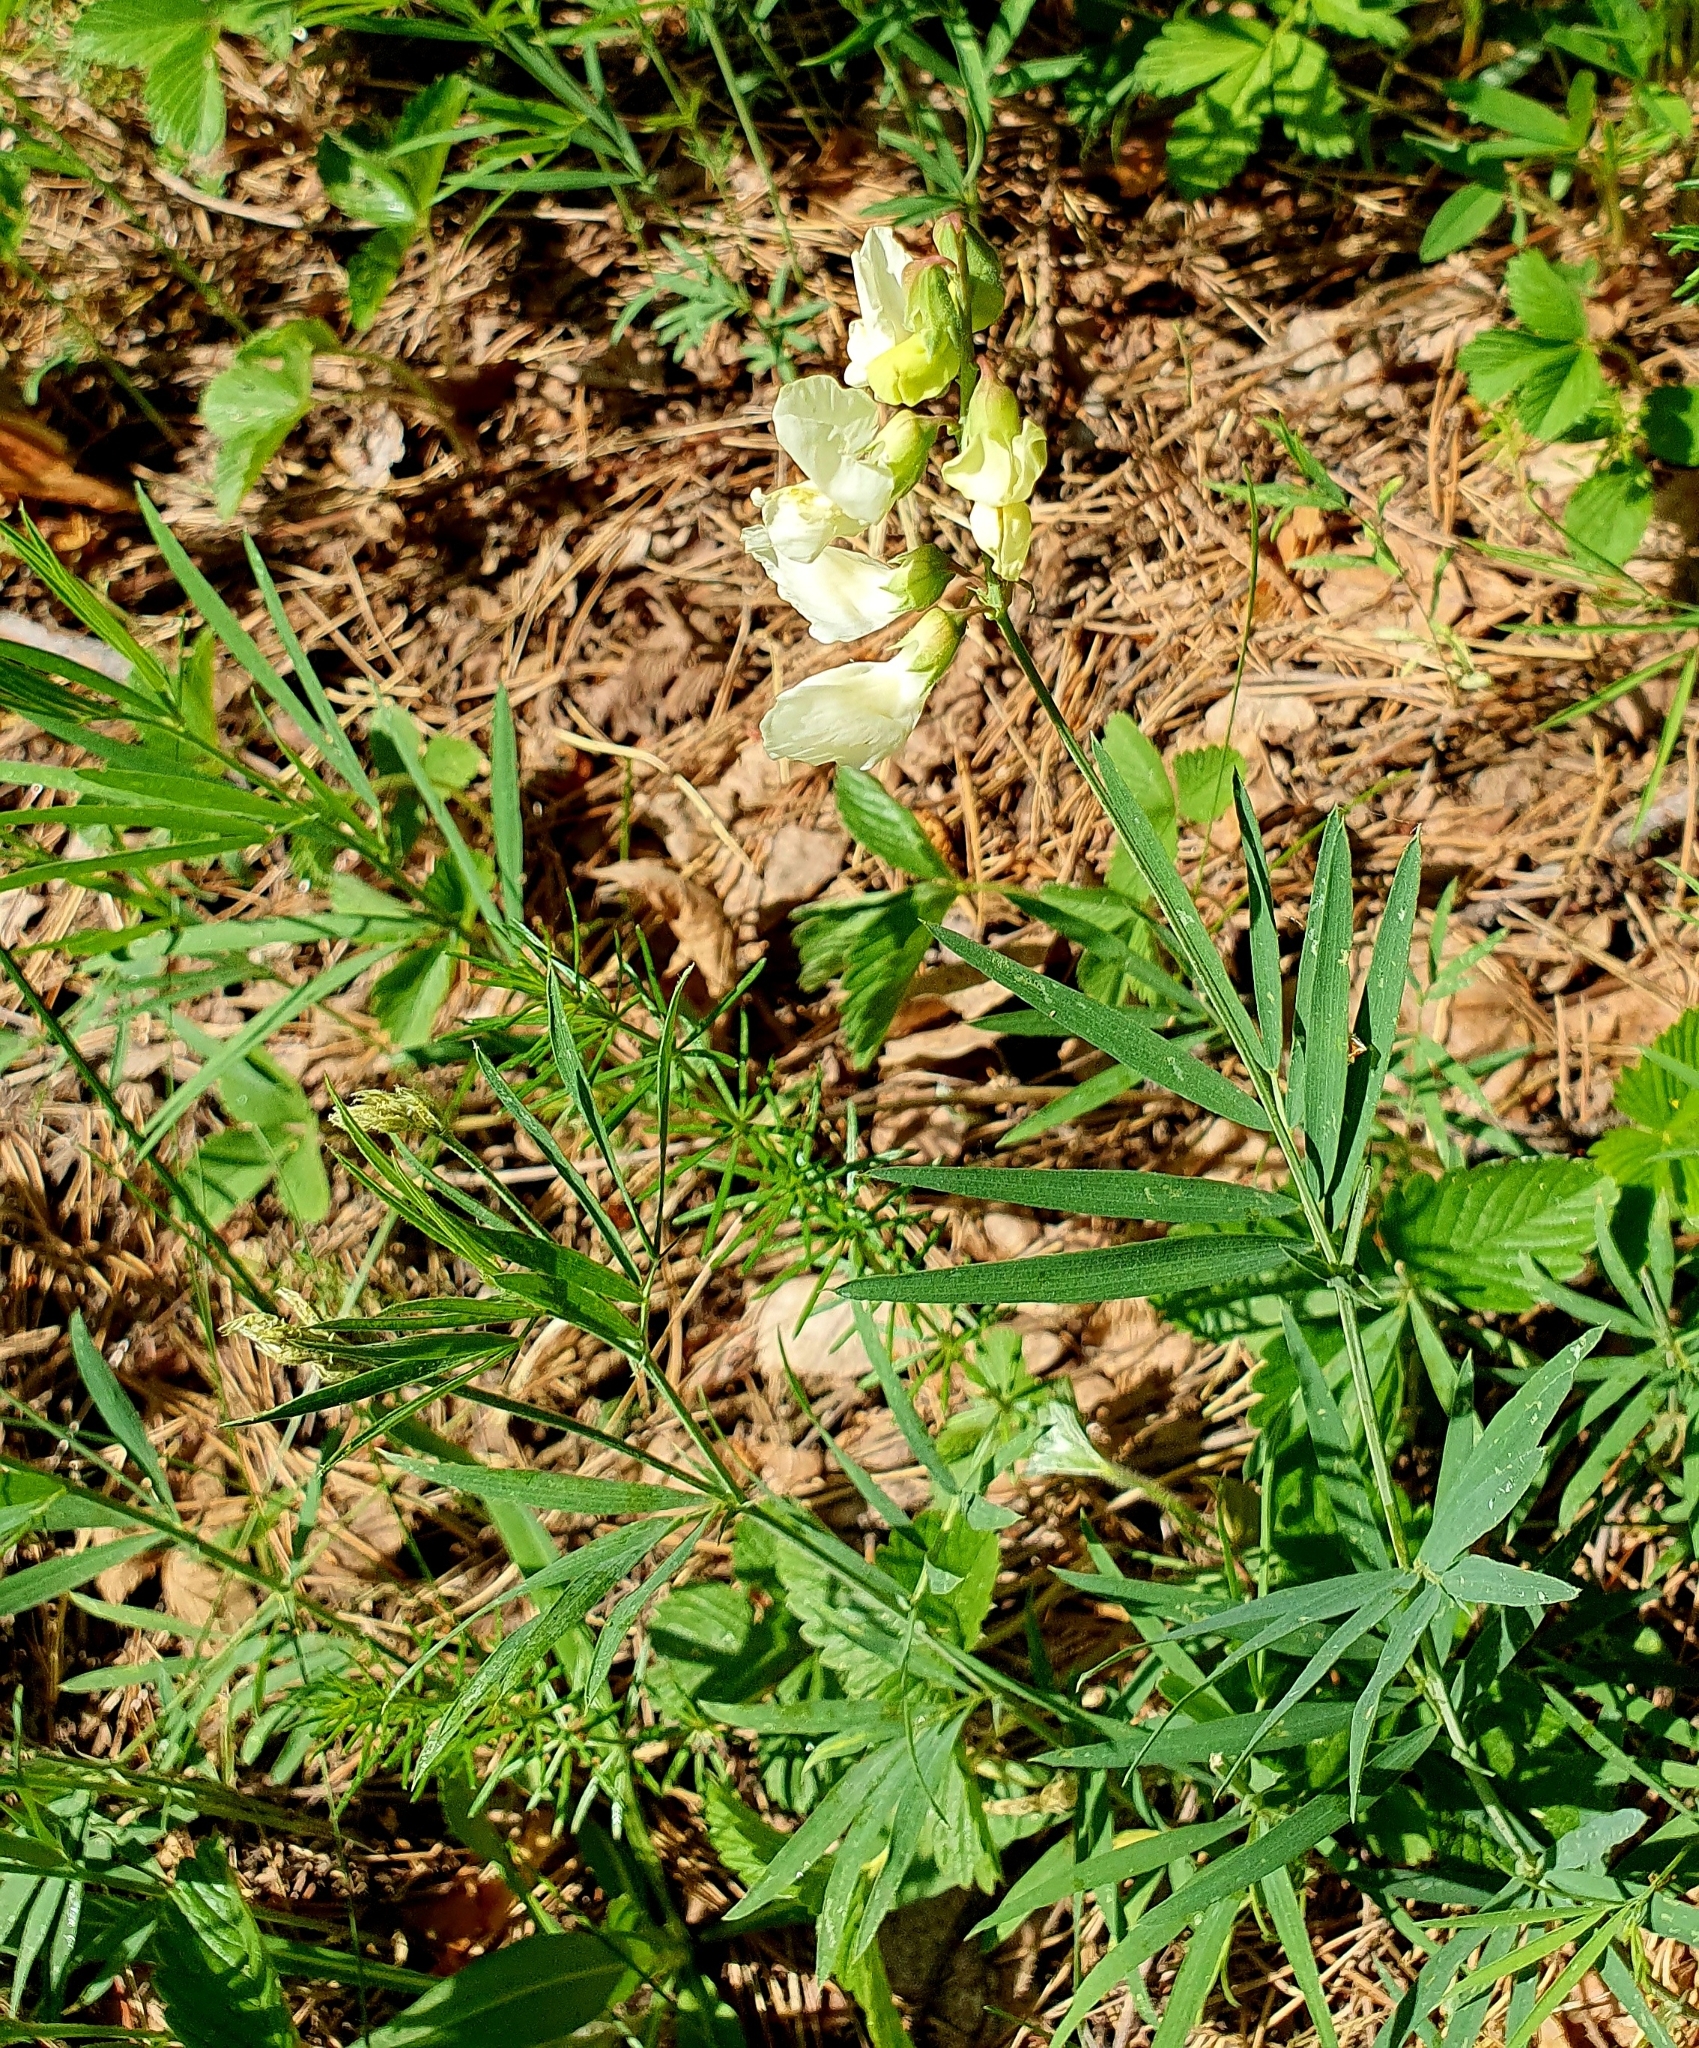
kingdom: Plantae
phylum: Tracheophyta
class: Magnoliopsida
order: Fabales
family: Fabaceae
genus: Lathyrus
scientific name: Lathyrus pallescens
